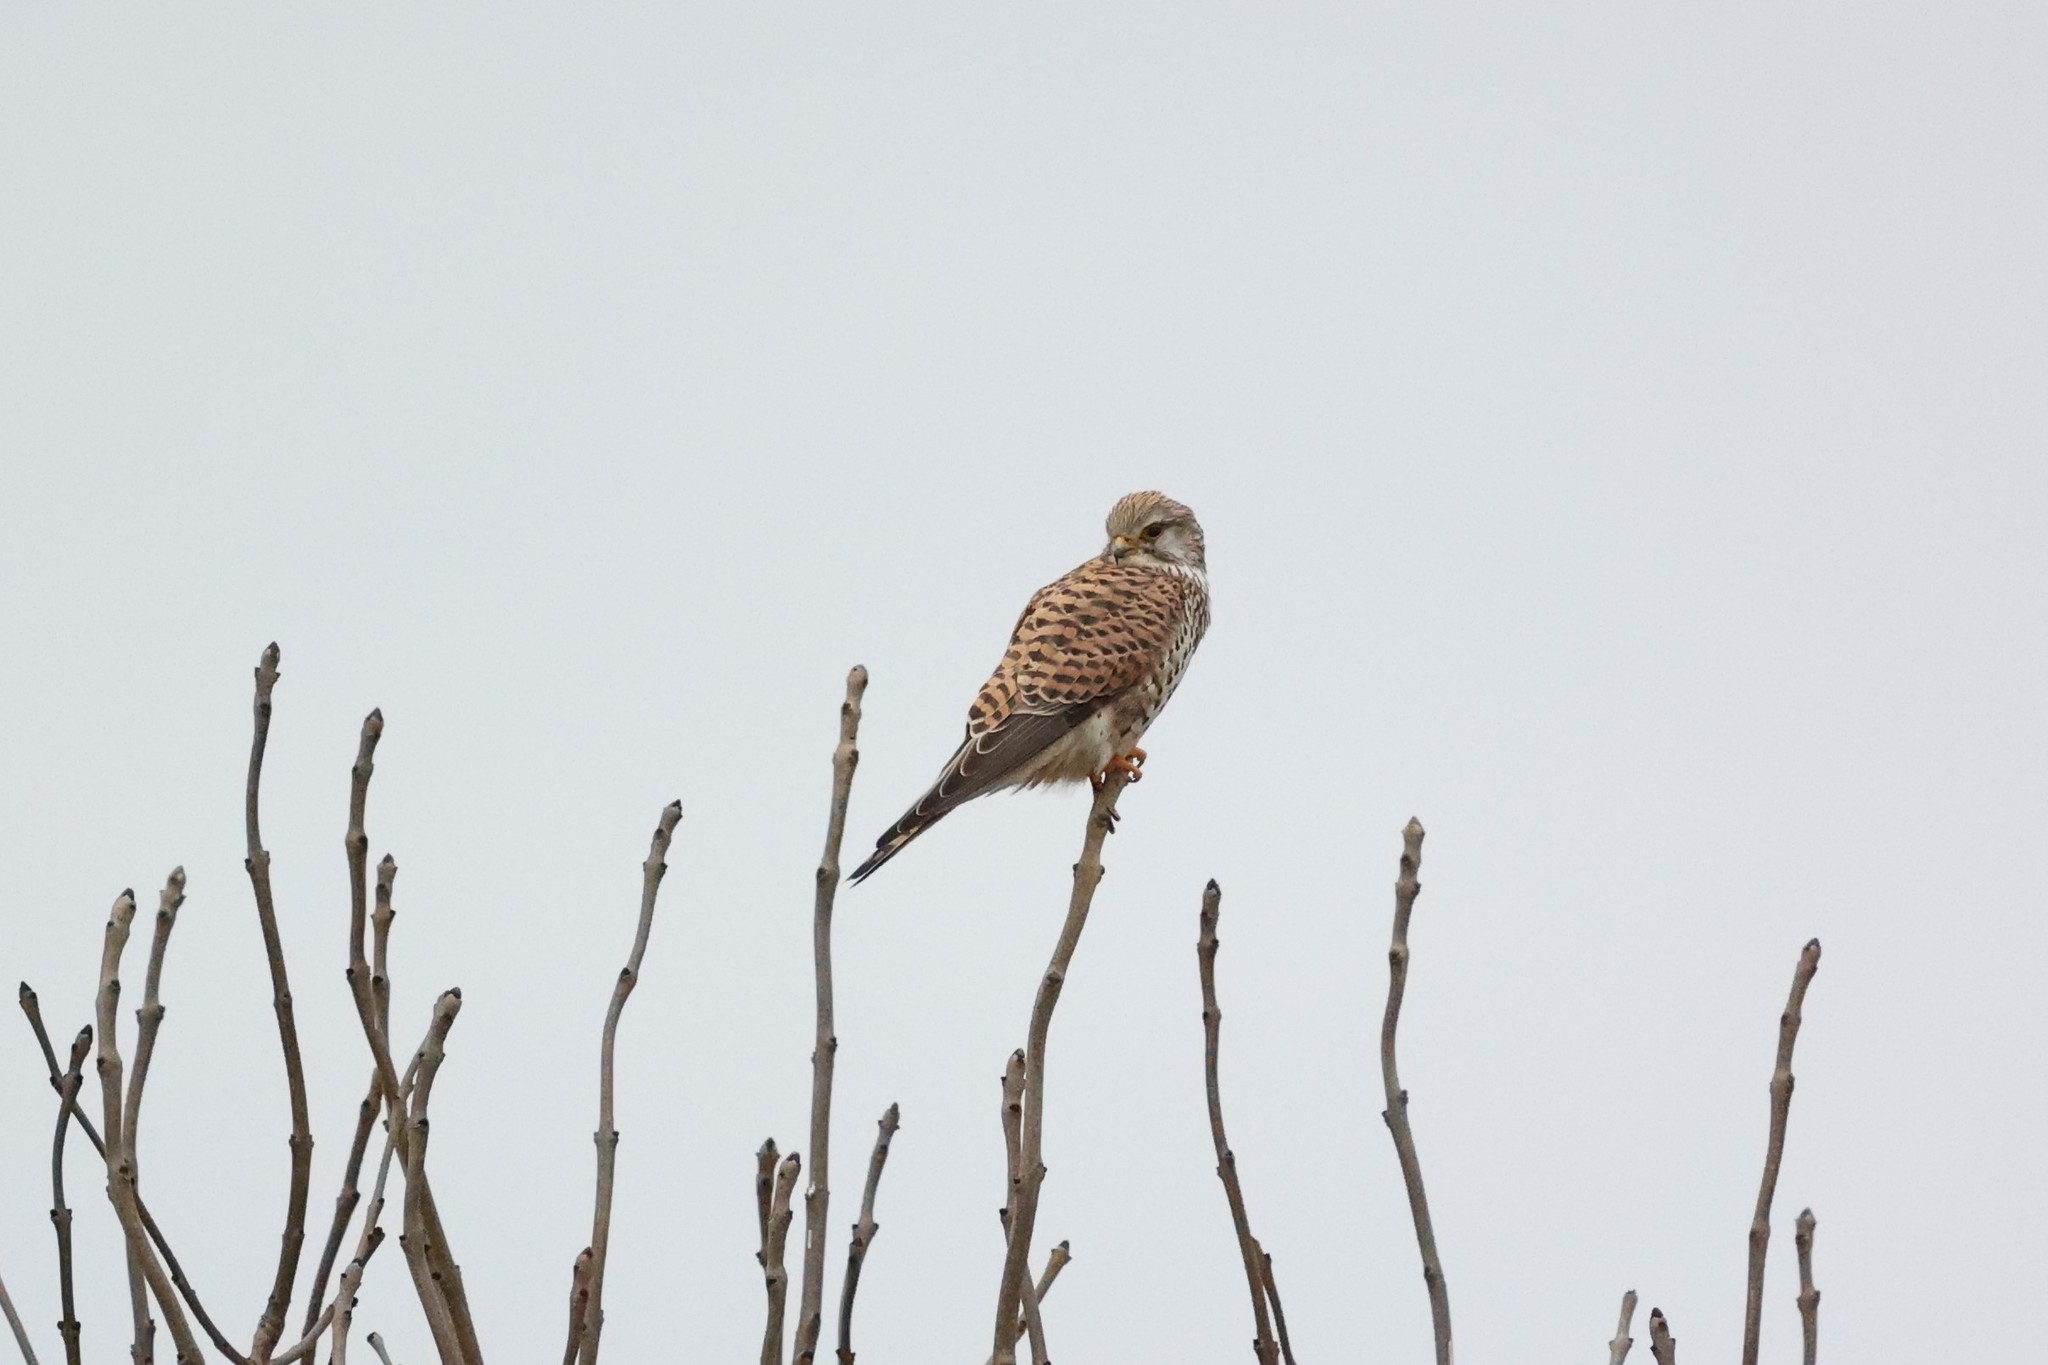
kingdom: Animalia
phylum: Chordata
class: Aves
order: Falconiformes
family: Falconidae
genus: Falco
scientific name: Falco tinnunculus
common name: Common kestrel
